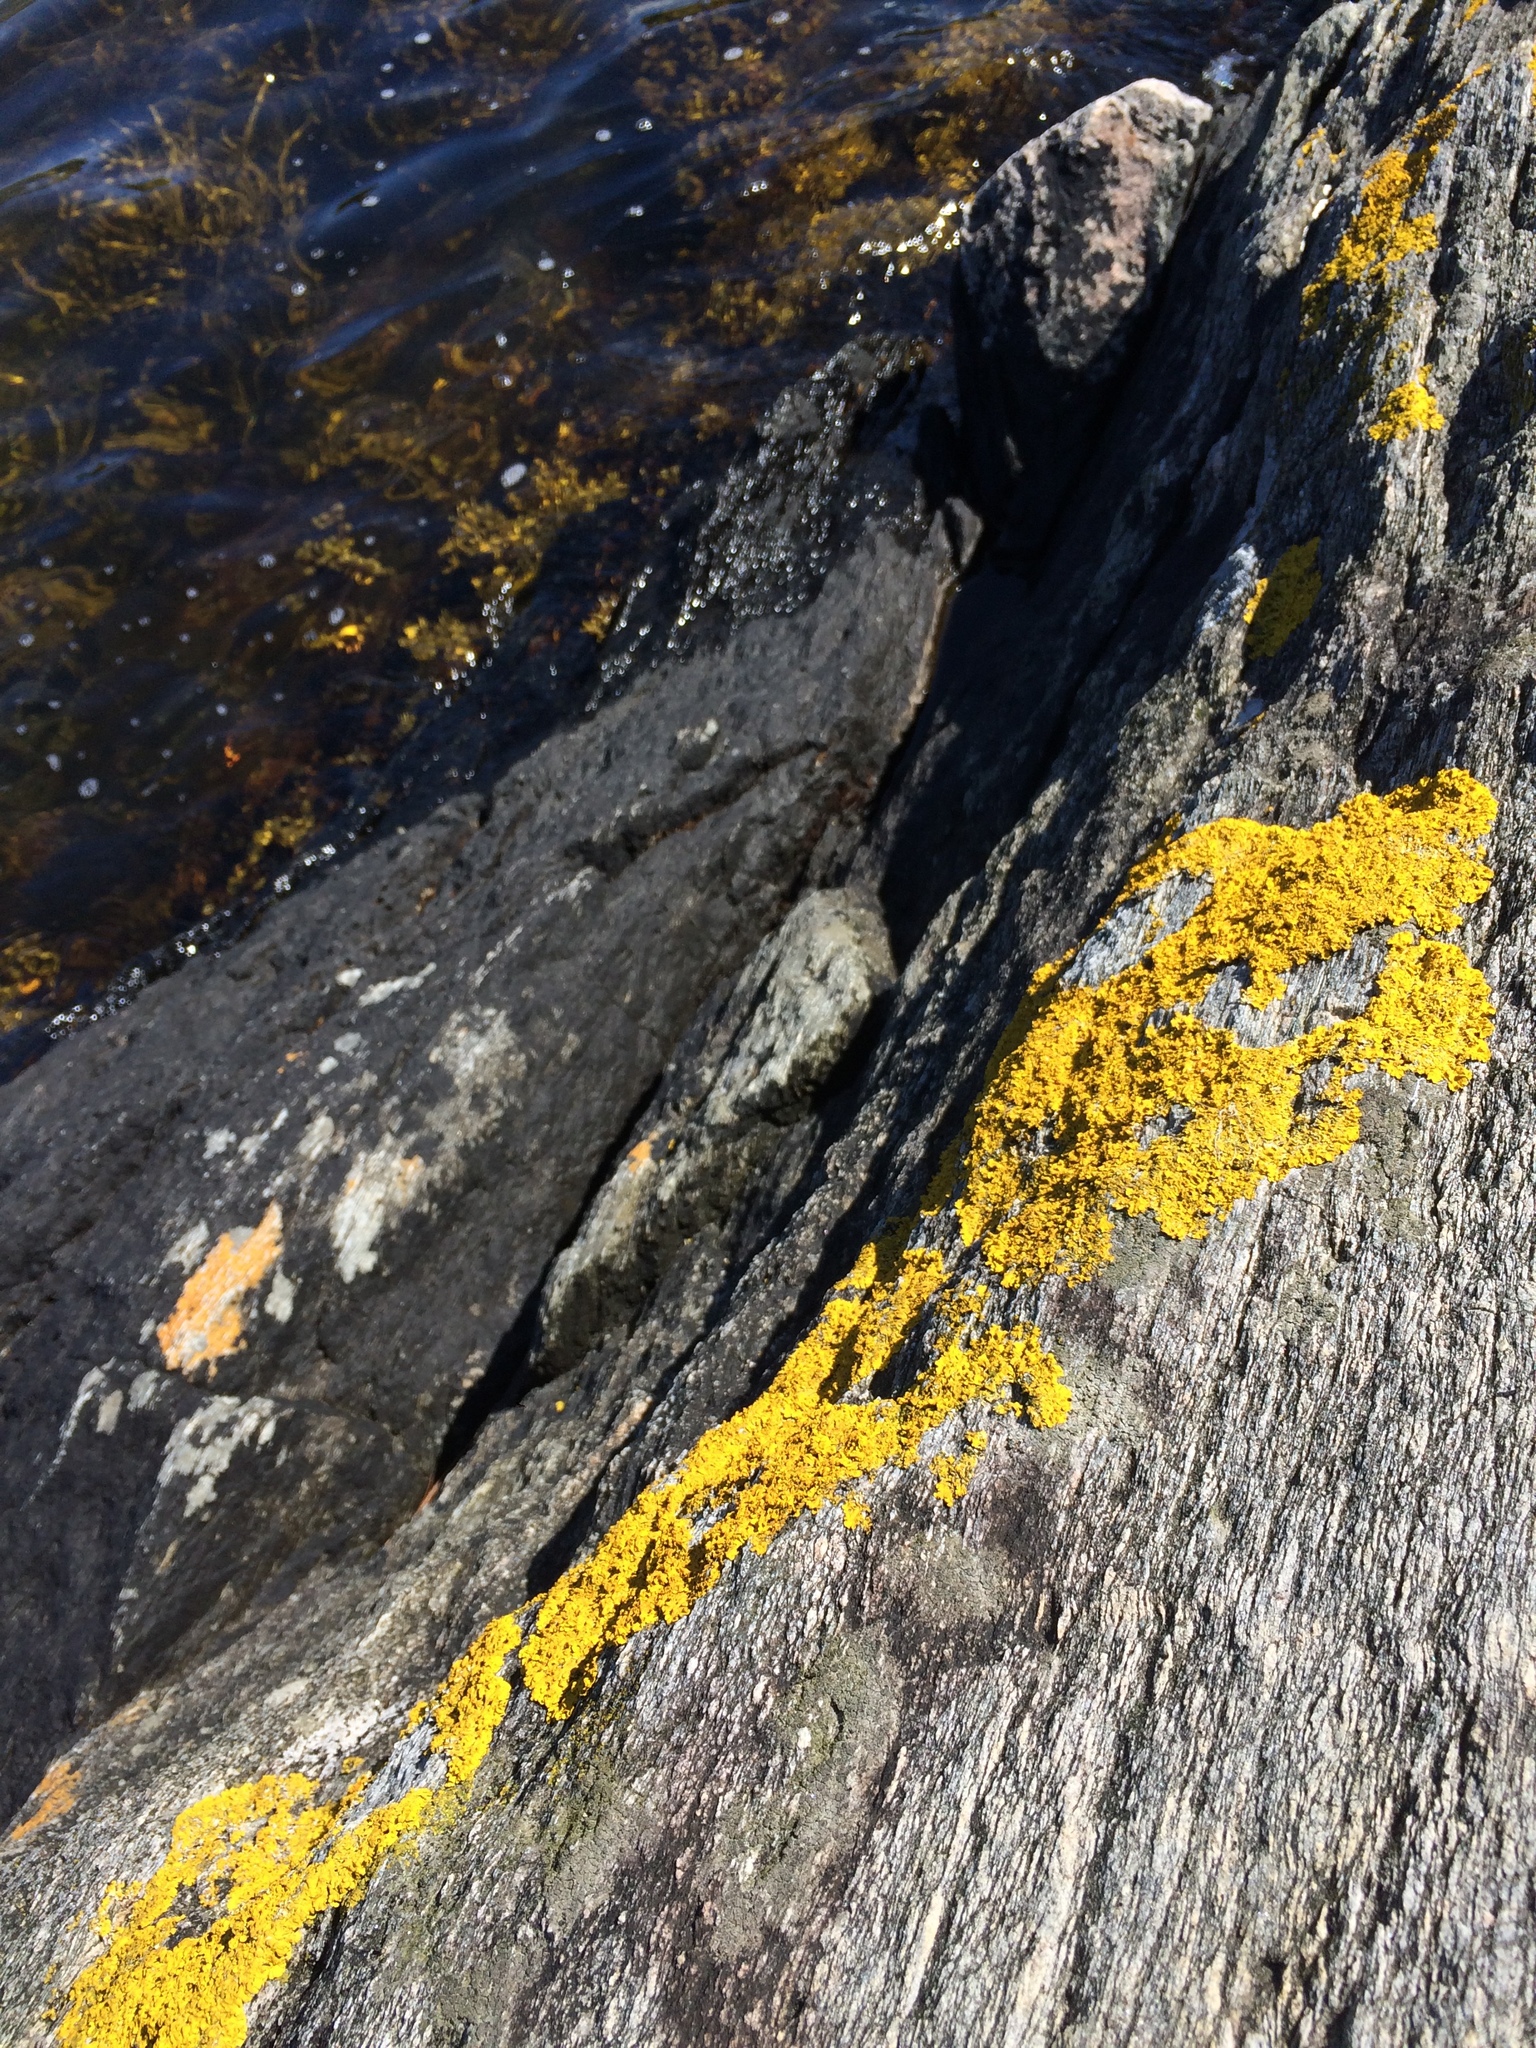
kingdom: Fungi
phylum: Ascomycota
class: Lecanoromycetes
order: Teloschistales
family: Teloschistaceae
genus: Xanthoria
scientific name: Xanthoria parietina
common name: Common orange lichen
